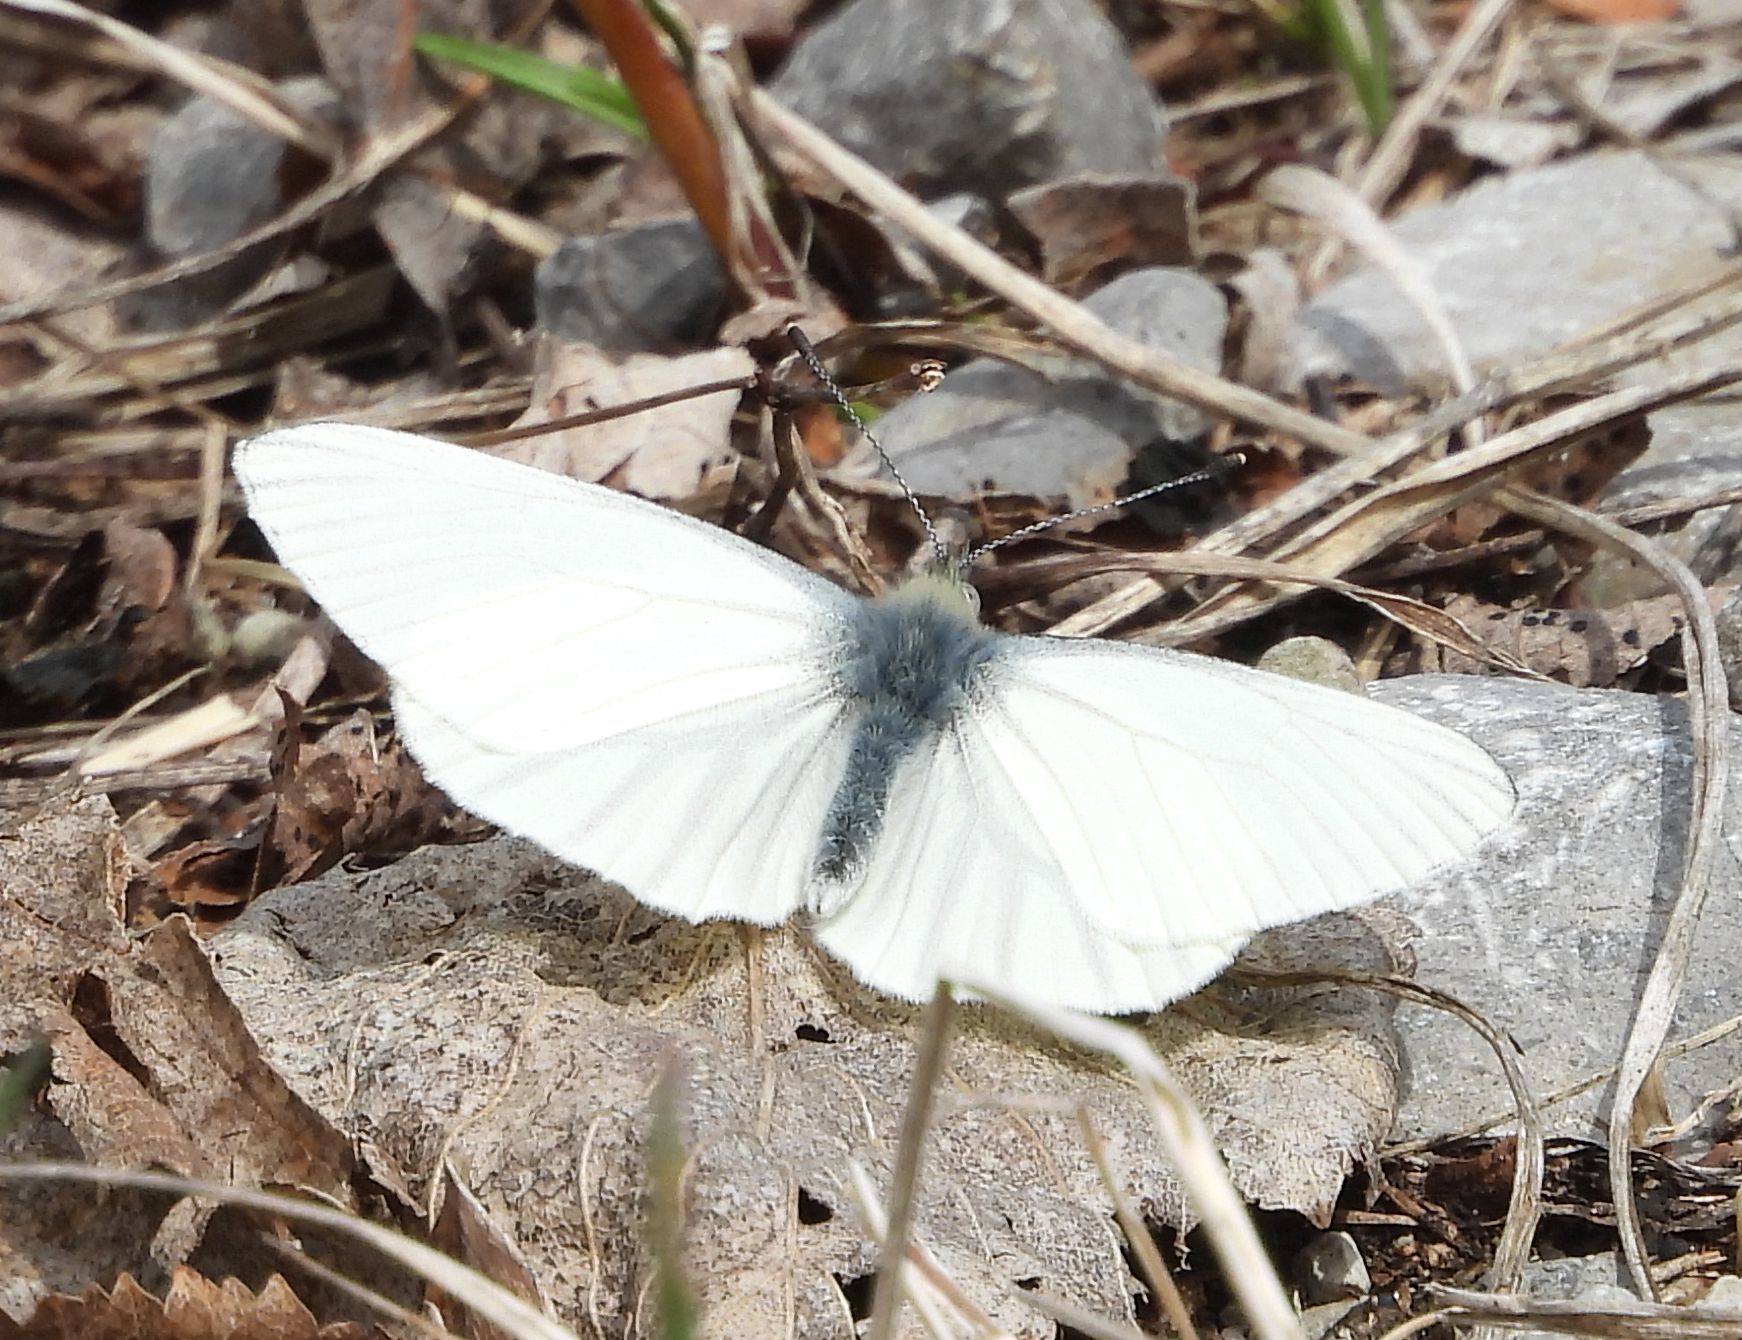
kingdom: Animalia
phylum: Arthropoda
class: Insecta
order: Lepidoptera
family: Pieridae
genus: Pieris
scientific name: Pieris oleracea
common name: Mustard white
